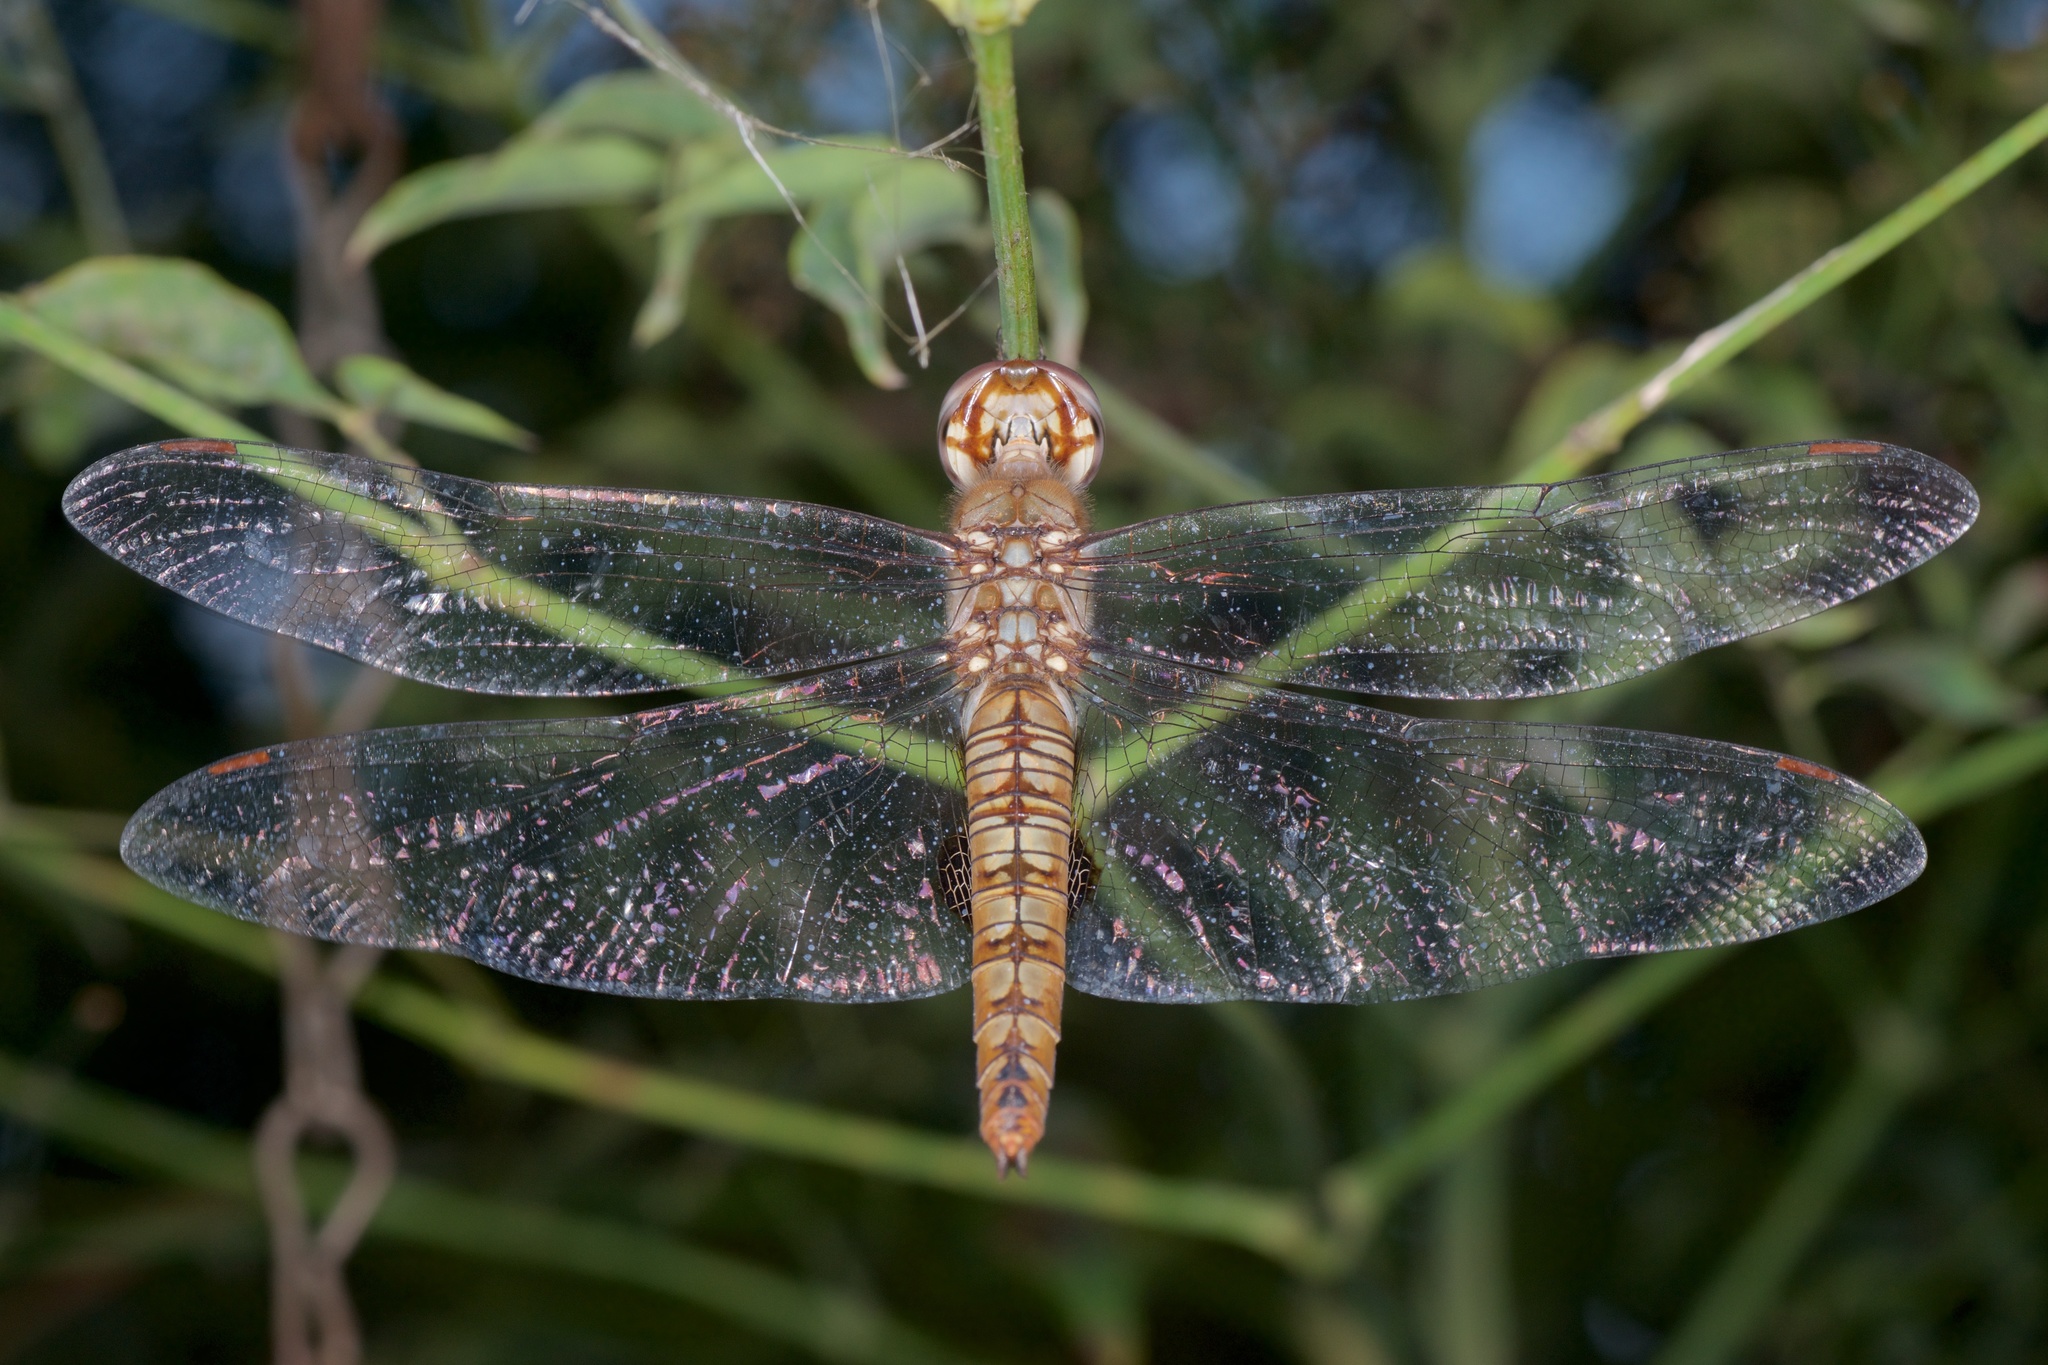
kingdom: Animalia
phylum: Arthropoda
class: Insecta
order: Odonata
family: Libellulidae
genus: Pantala
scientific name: Pantala hymenaea
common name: Spot-winged glider
